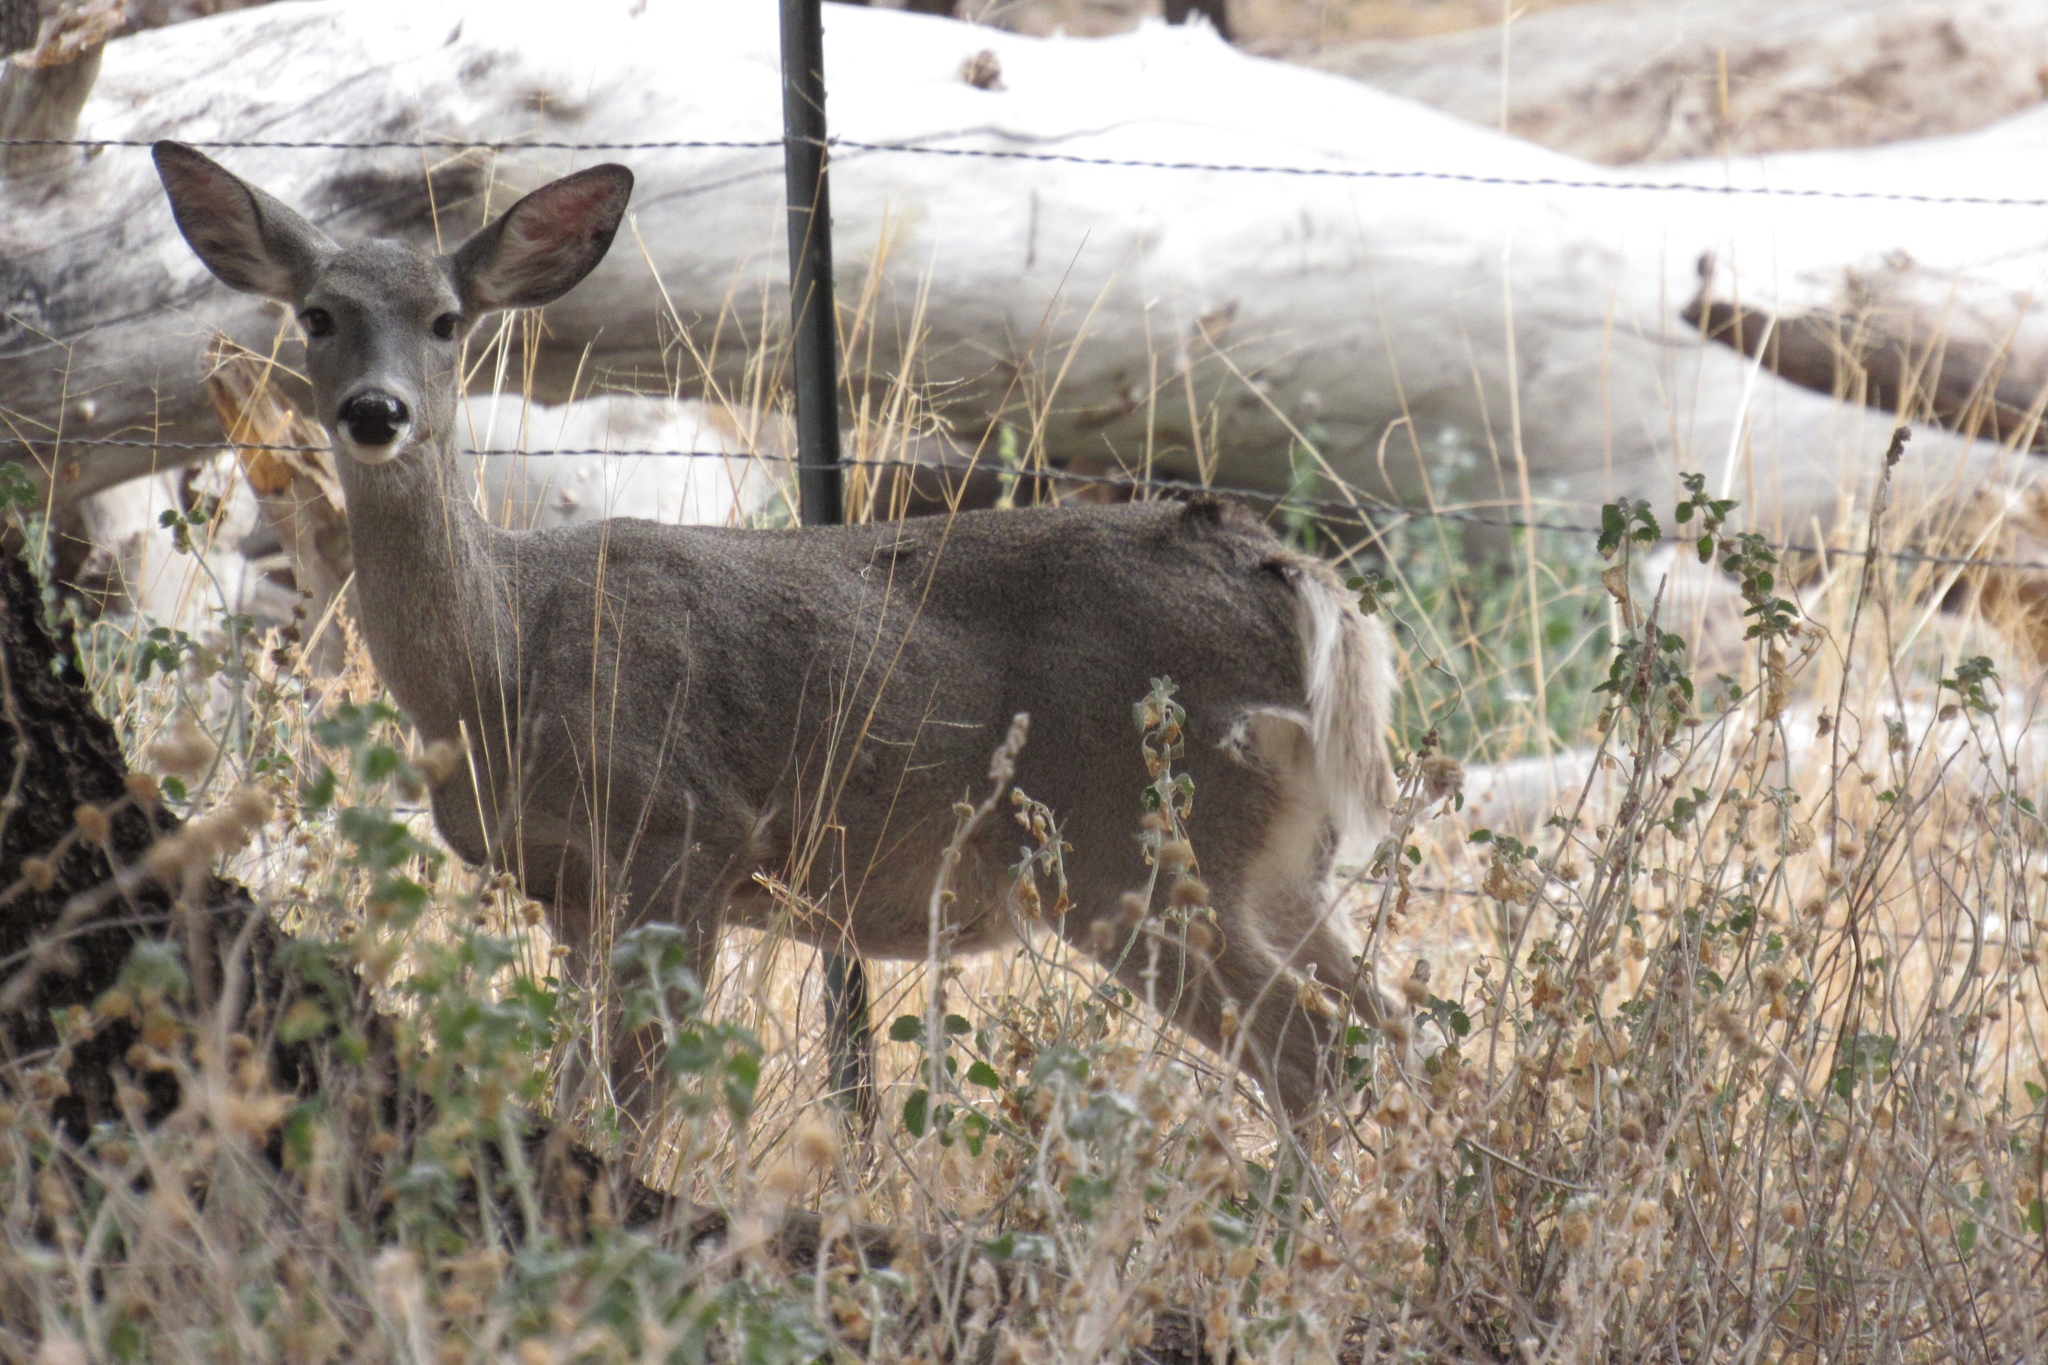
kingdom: Animalia
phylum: Chordata
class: Mammalia
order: Artiodactyla
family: Cervidae
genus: Odocoileus
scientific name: Odocoileus virginianus
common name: White-tailed deer
